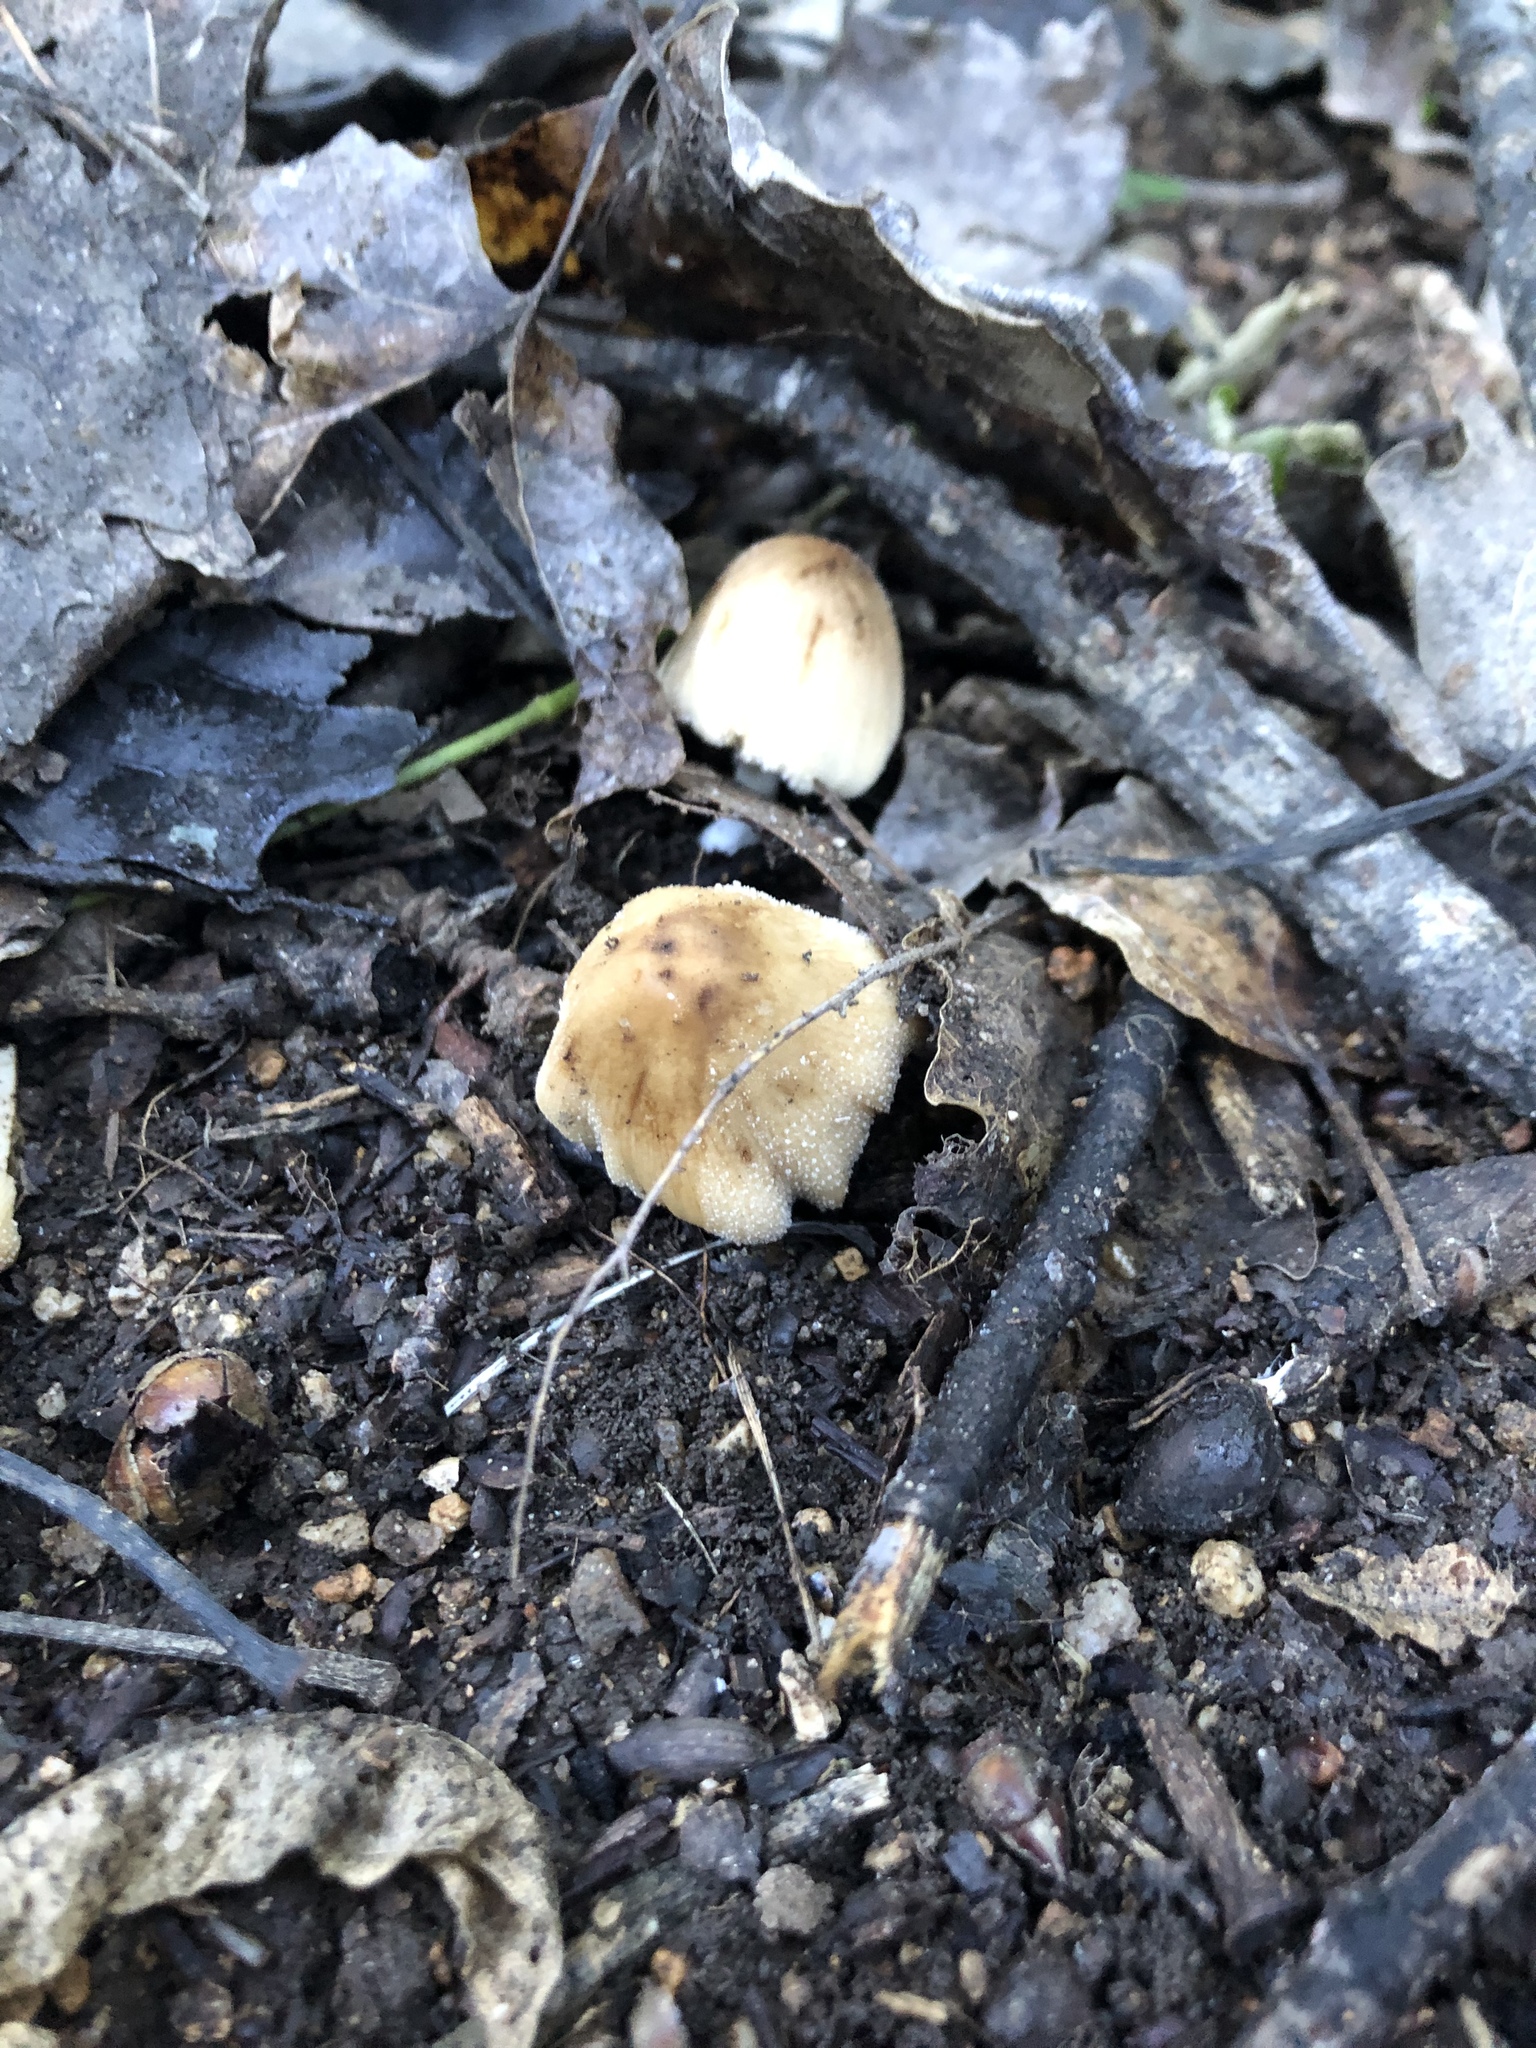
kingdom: Fungi
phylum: Basidiomycota
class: Agaricomycetes
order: Agaricales
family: Psathyrellaceae
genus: Coprinellus
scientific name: Coprinellus micaceus
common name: Glistening ink-cap
